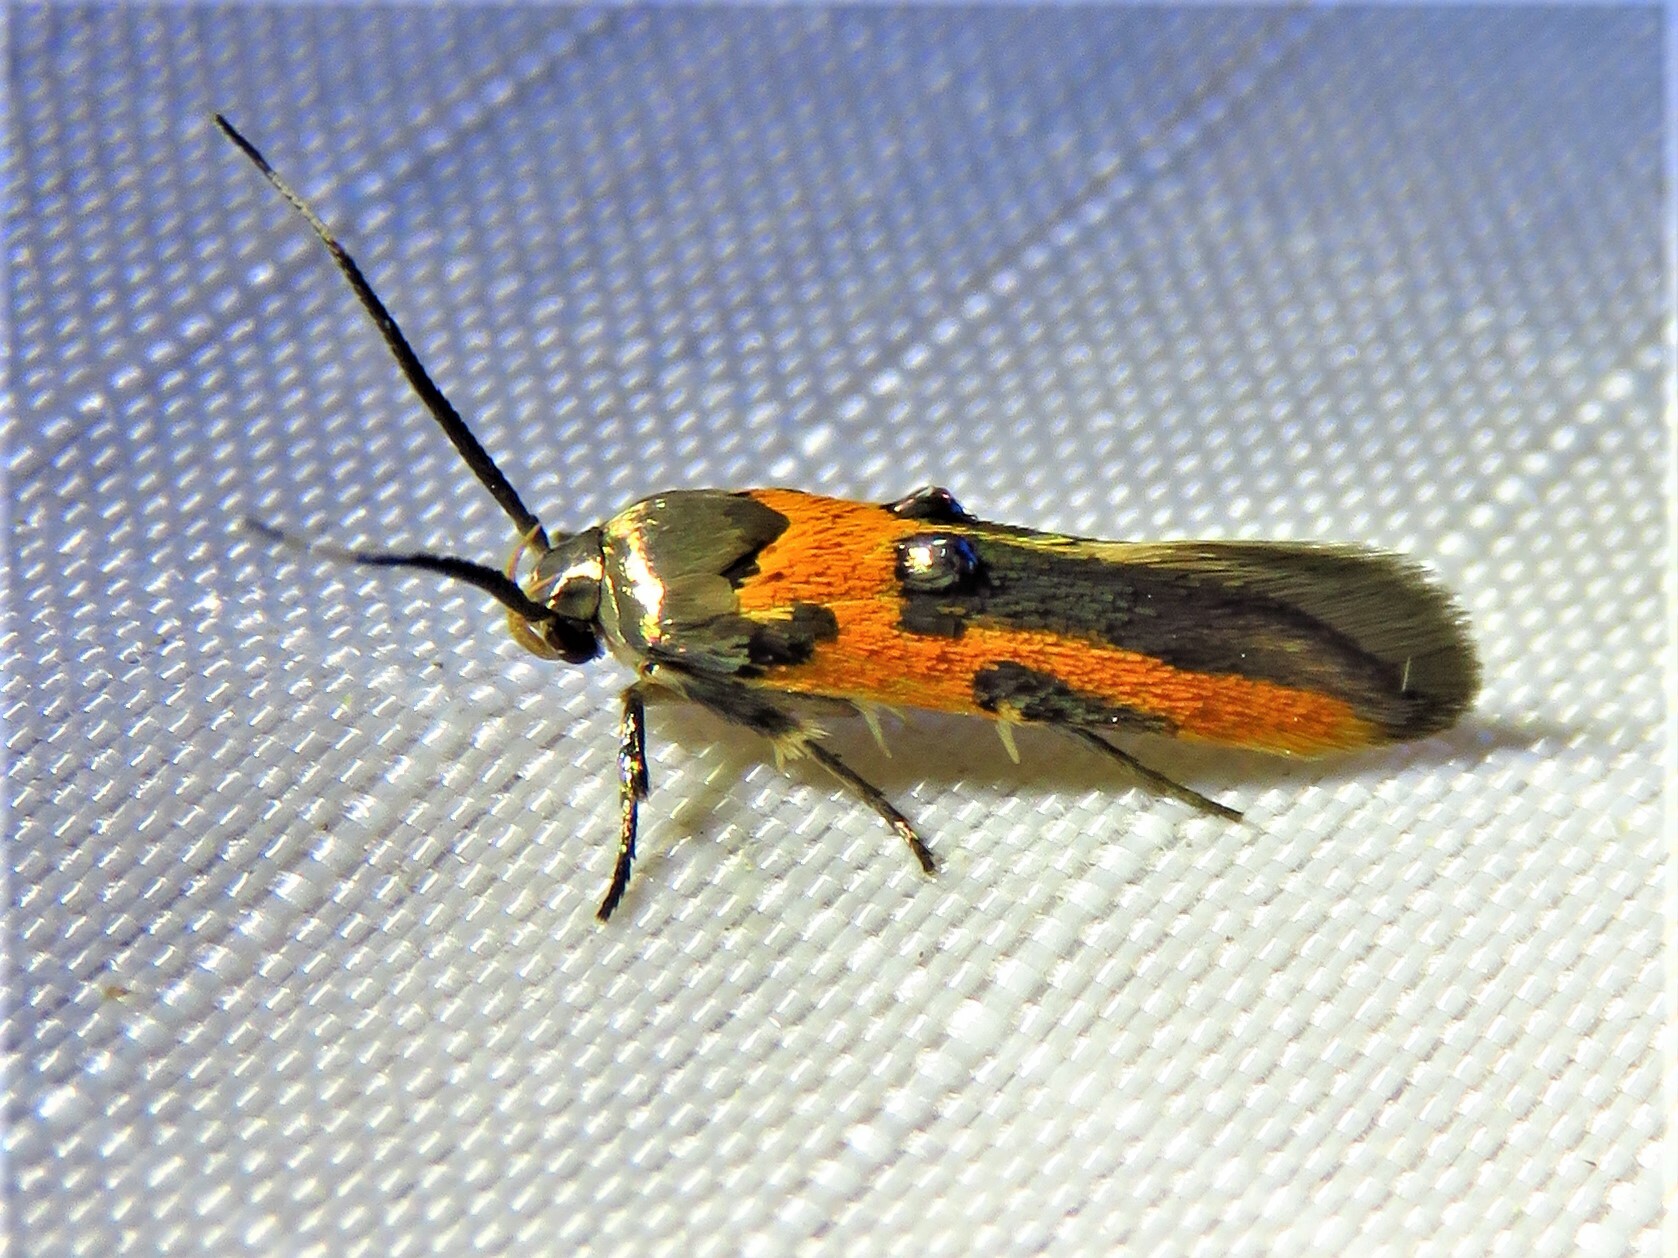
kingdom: Animalia
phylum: Arthropoda
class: Insecta
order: Lepidoptera
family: Cosmopterigidae
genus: Euclemensia
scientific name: Euclemensia bassettella
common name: Kermes scale moth
